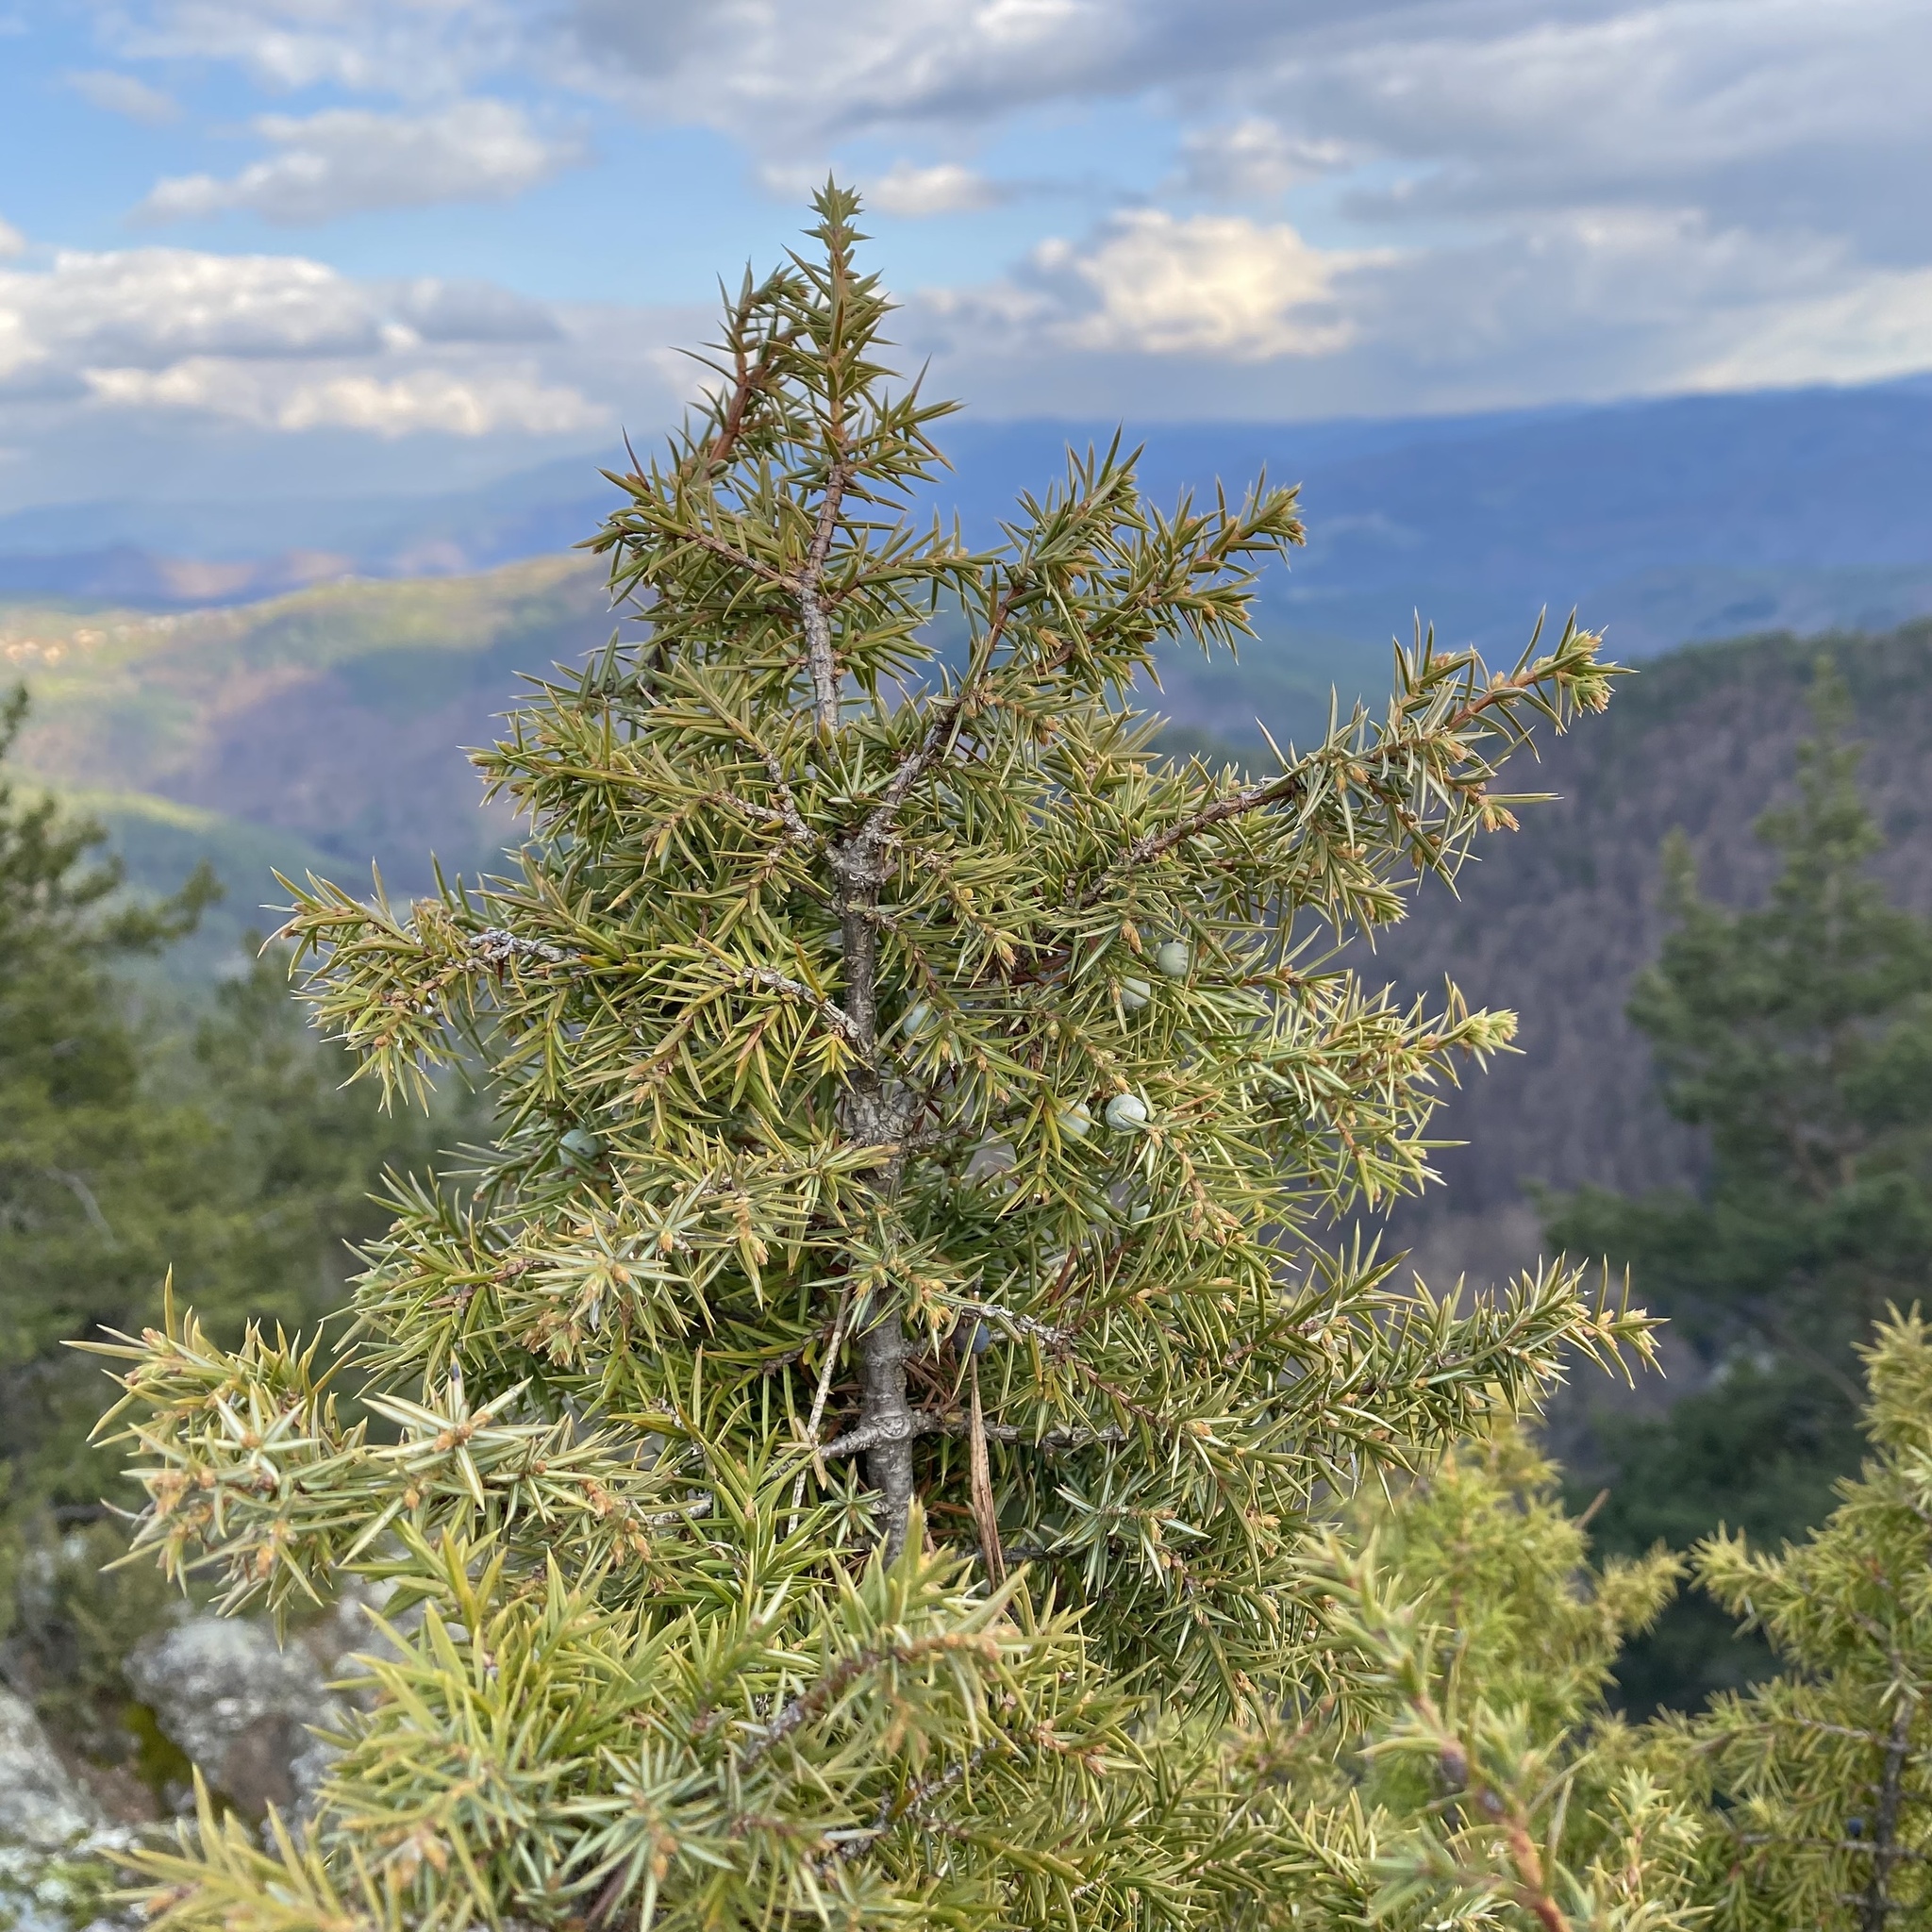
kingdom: Plantae
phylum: Tracheophyta
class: Pinopsida
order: Pinales
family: Cupressaceae
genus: Juniperus
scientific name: Juniperus communis
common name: Common juniper
